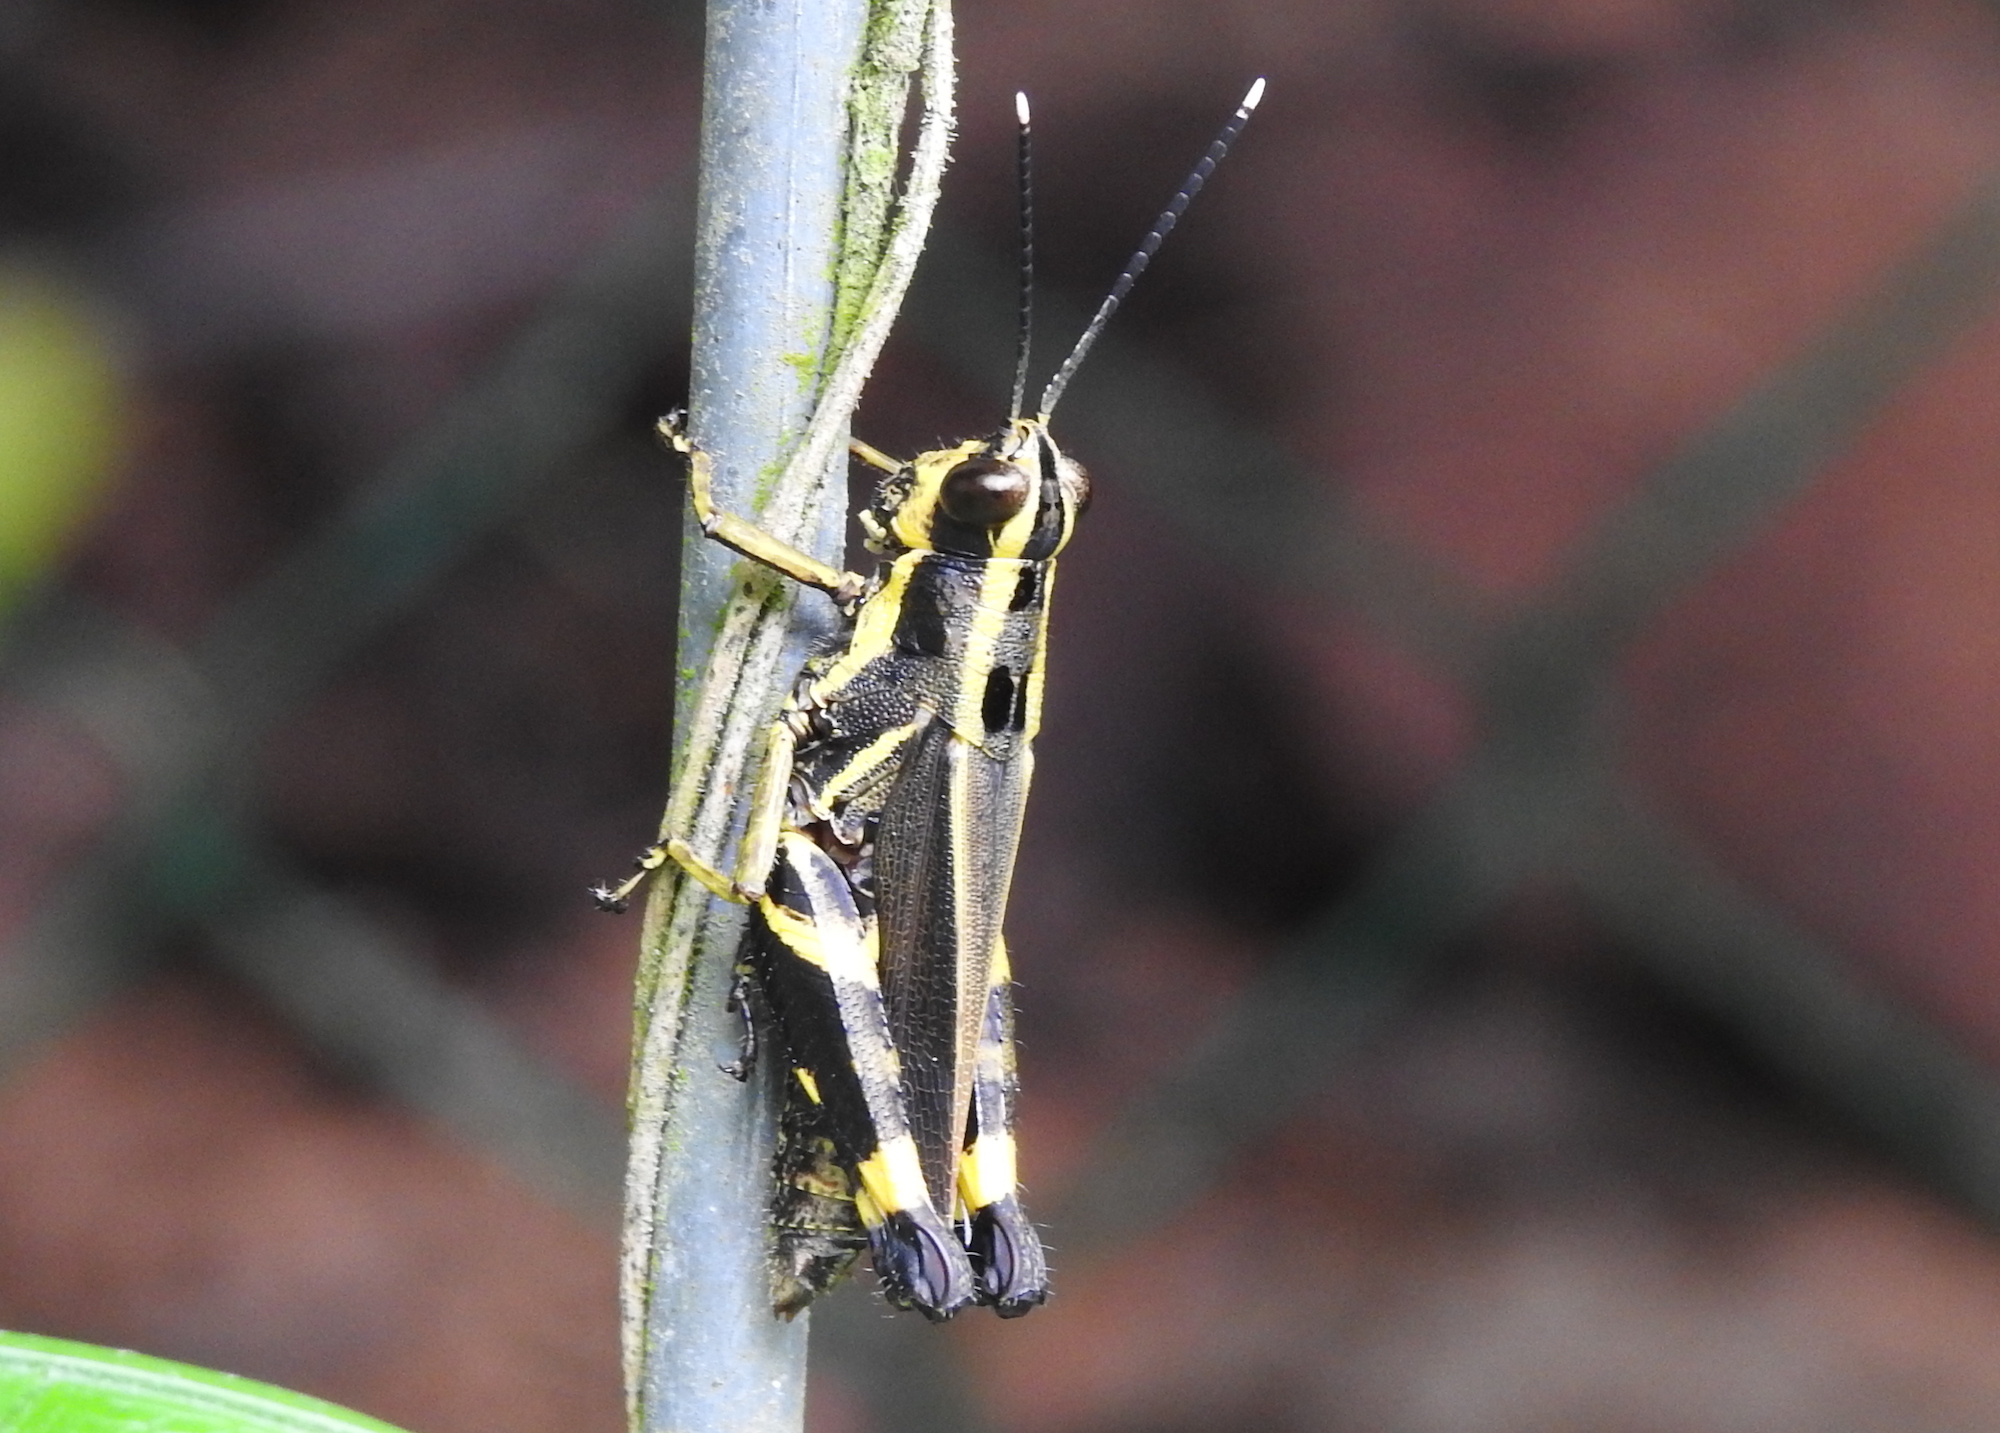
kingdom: Animalia
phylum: Arthropoda
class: Insecta
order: Orthoptera
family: Acrididae
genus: Traulia
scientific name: Traulia azureipennis
